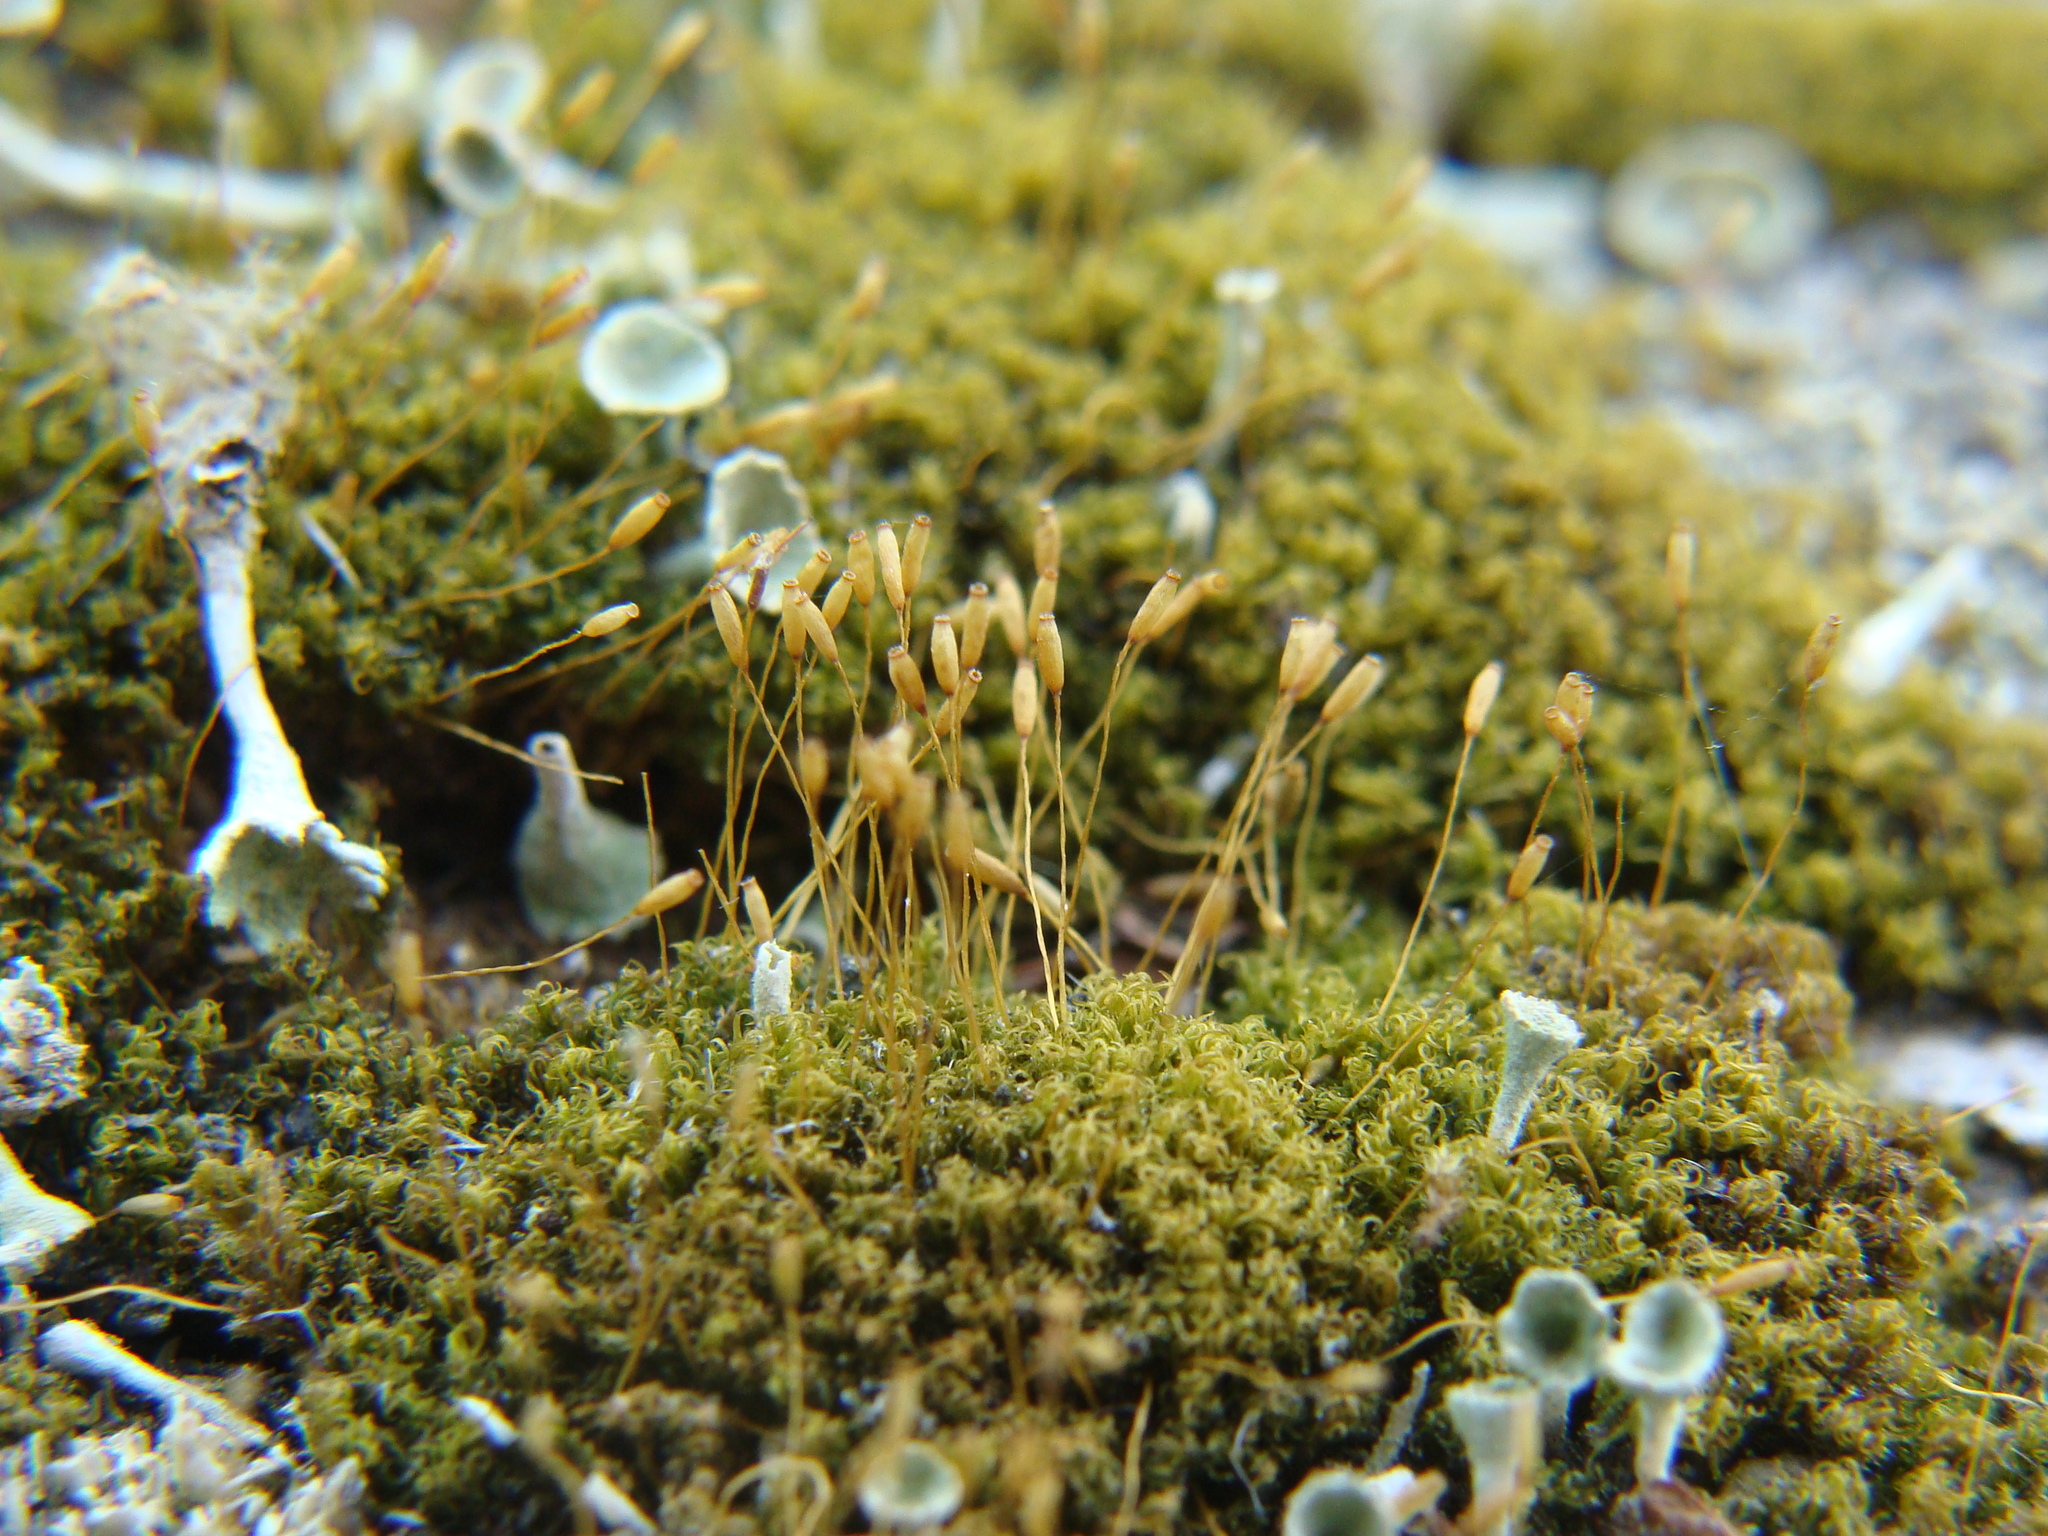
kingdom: Plantae
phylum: Bryophyta
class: Bryopsida
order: Dicranales
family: Rhabdoweisiaceae
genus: Dicranoweisia
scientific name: Dicranoweisia cirrata
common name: Common pincushion
